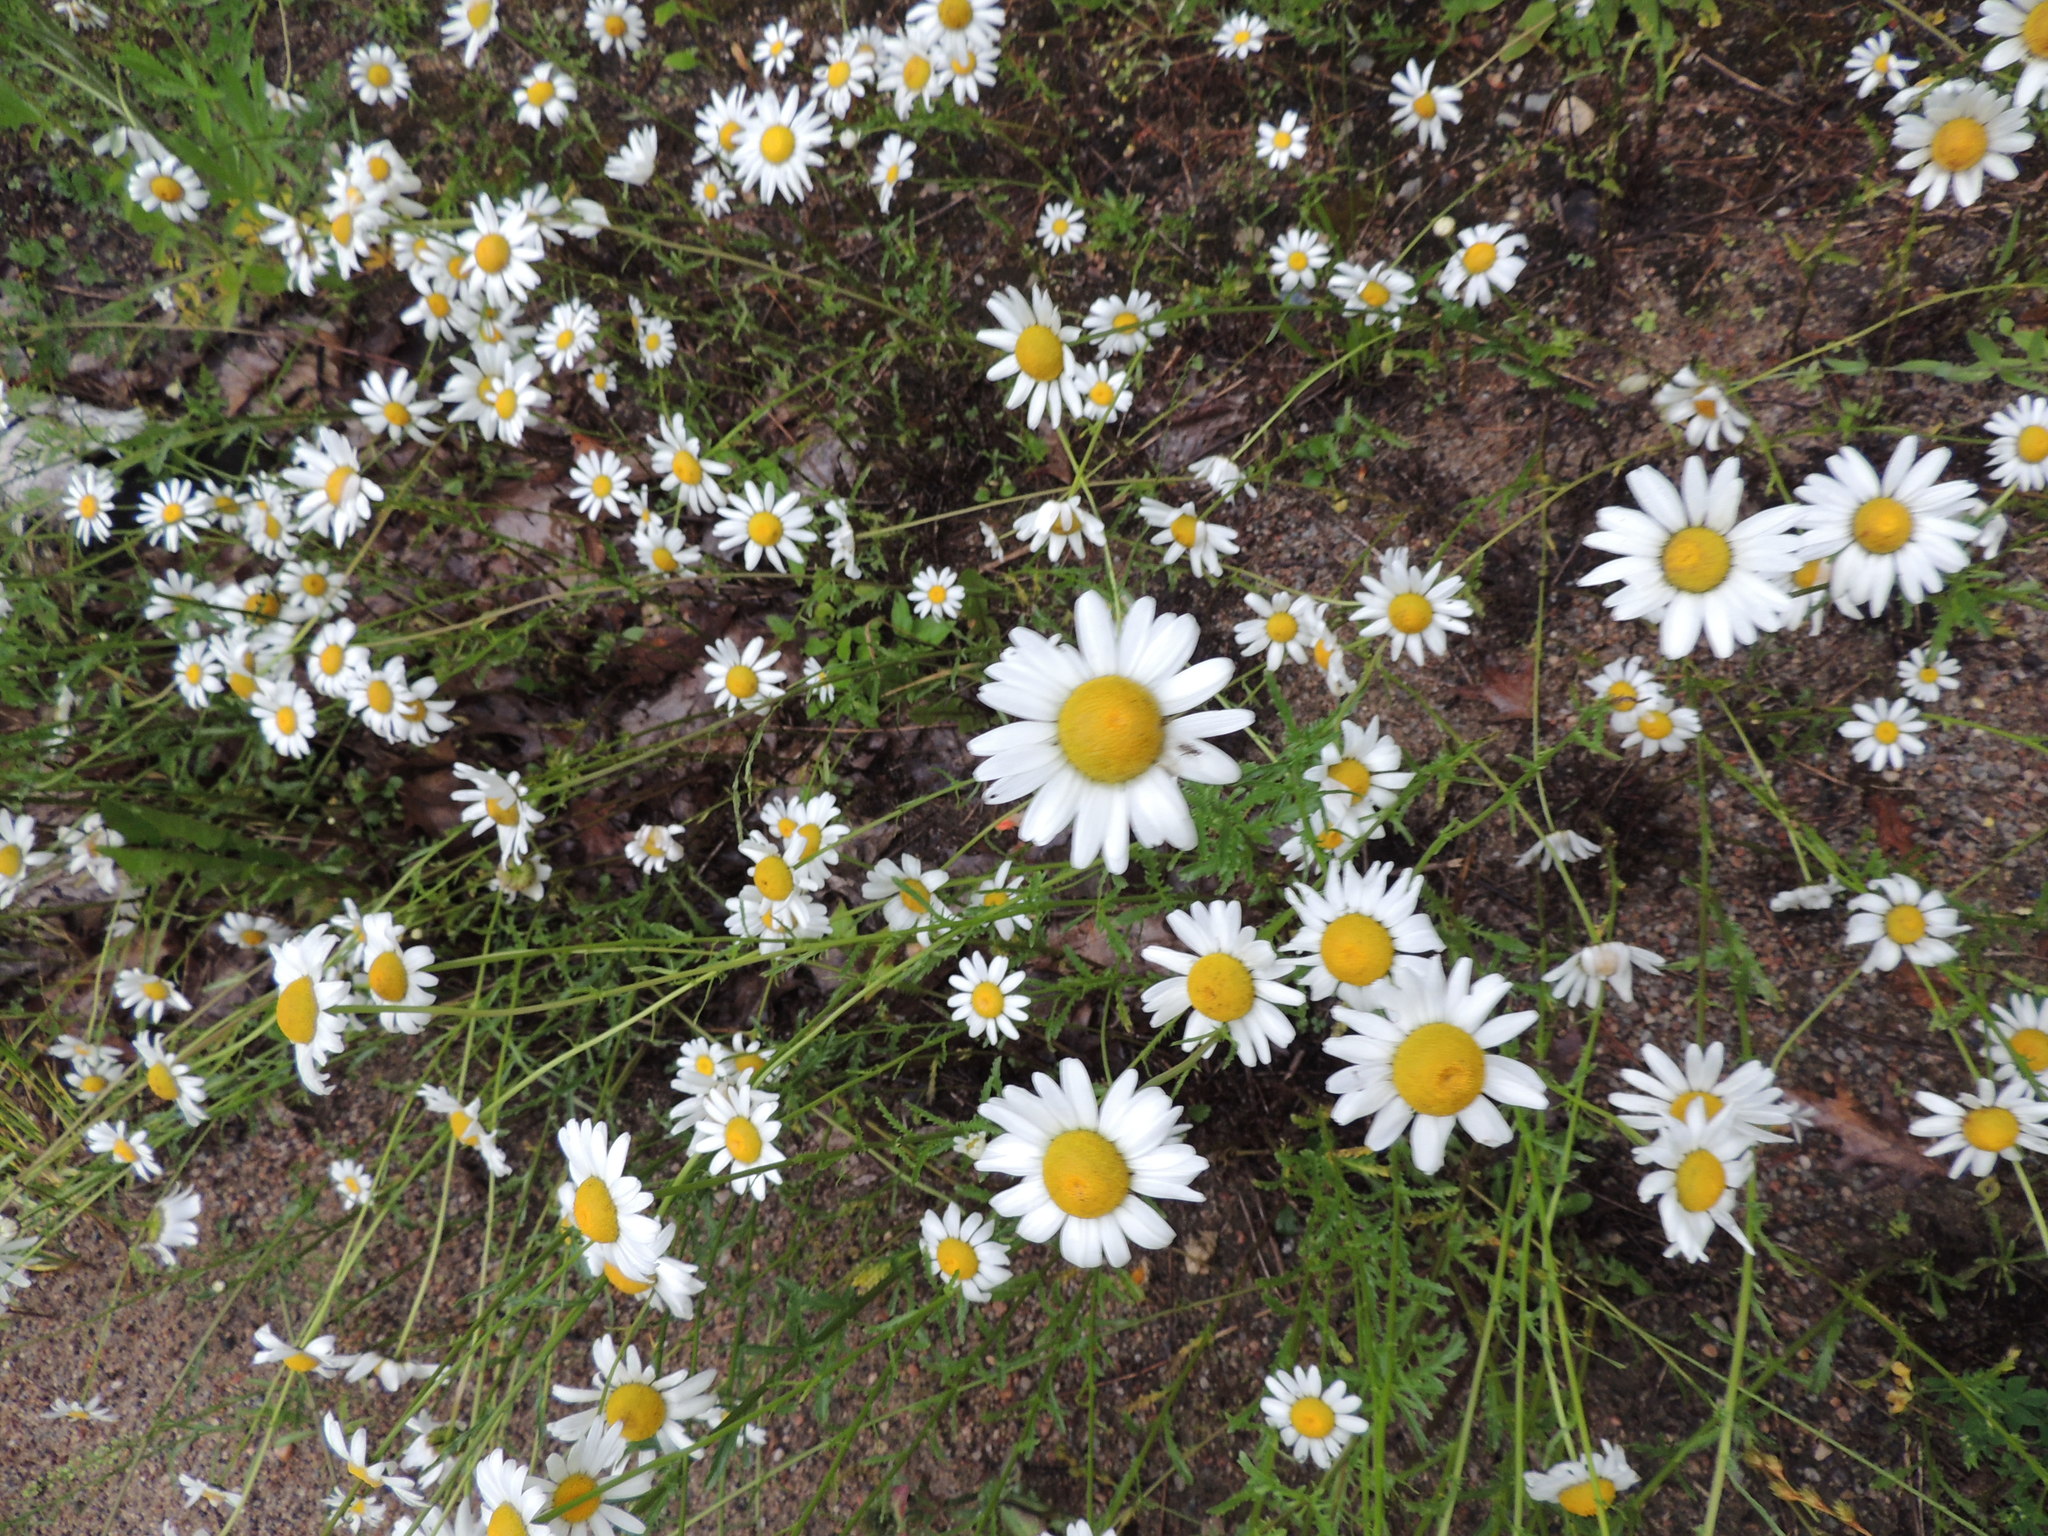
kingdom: Plantae
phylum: Tracheophyta
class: Magnoliopsida
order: Asterales
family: Asteraceae
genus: Leucanthemum
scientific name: Leucanthemum vulgare
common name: Oxeye daisy
